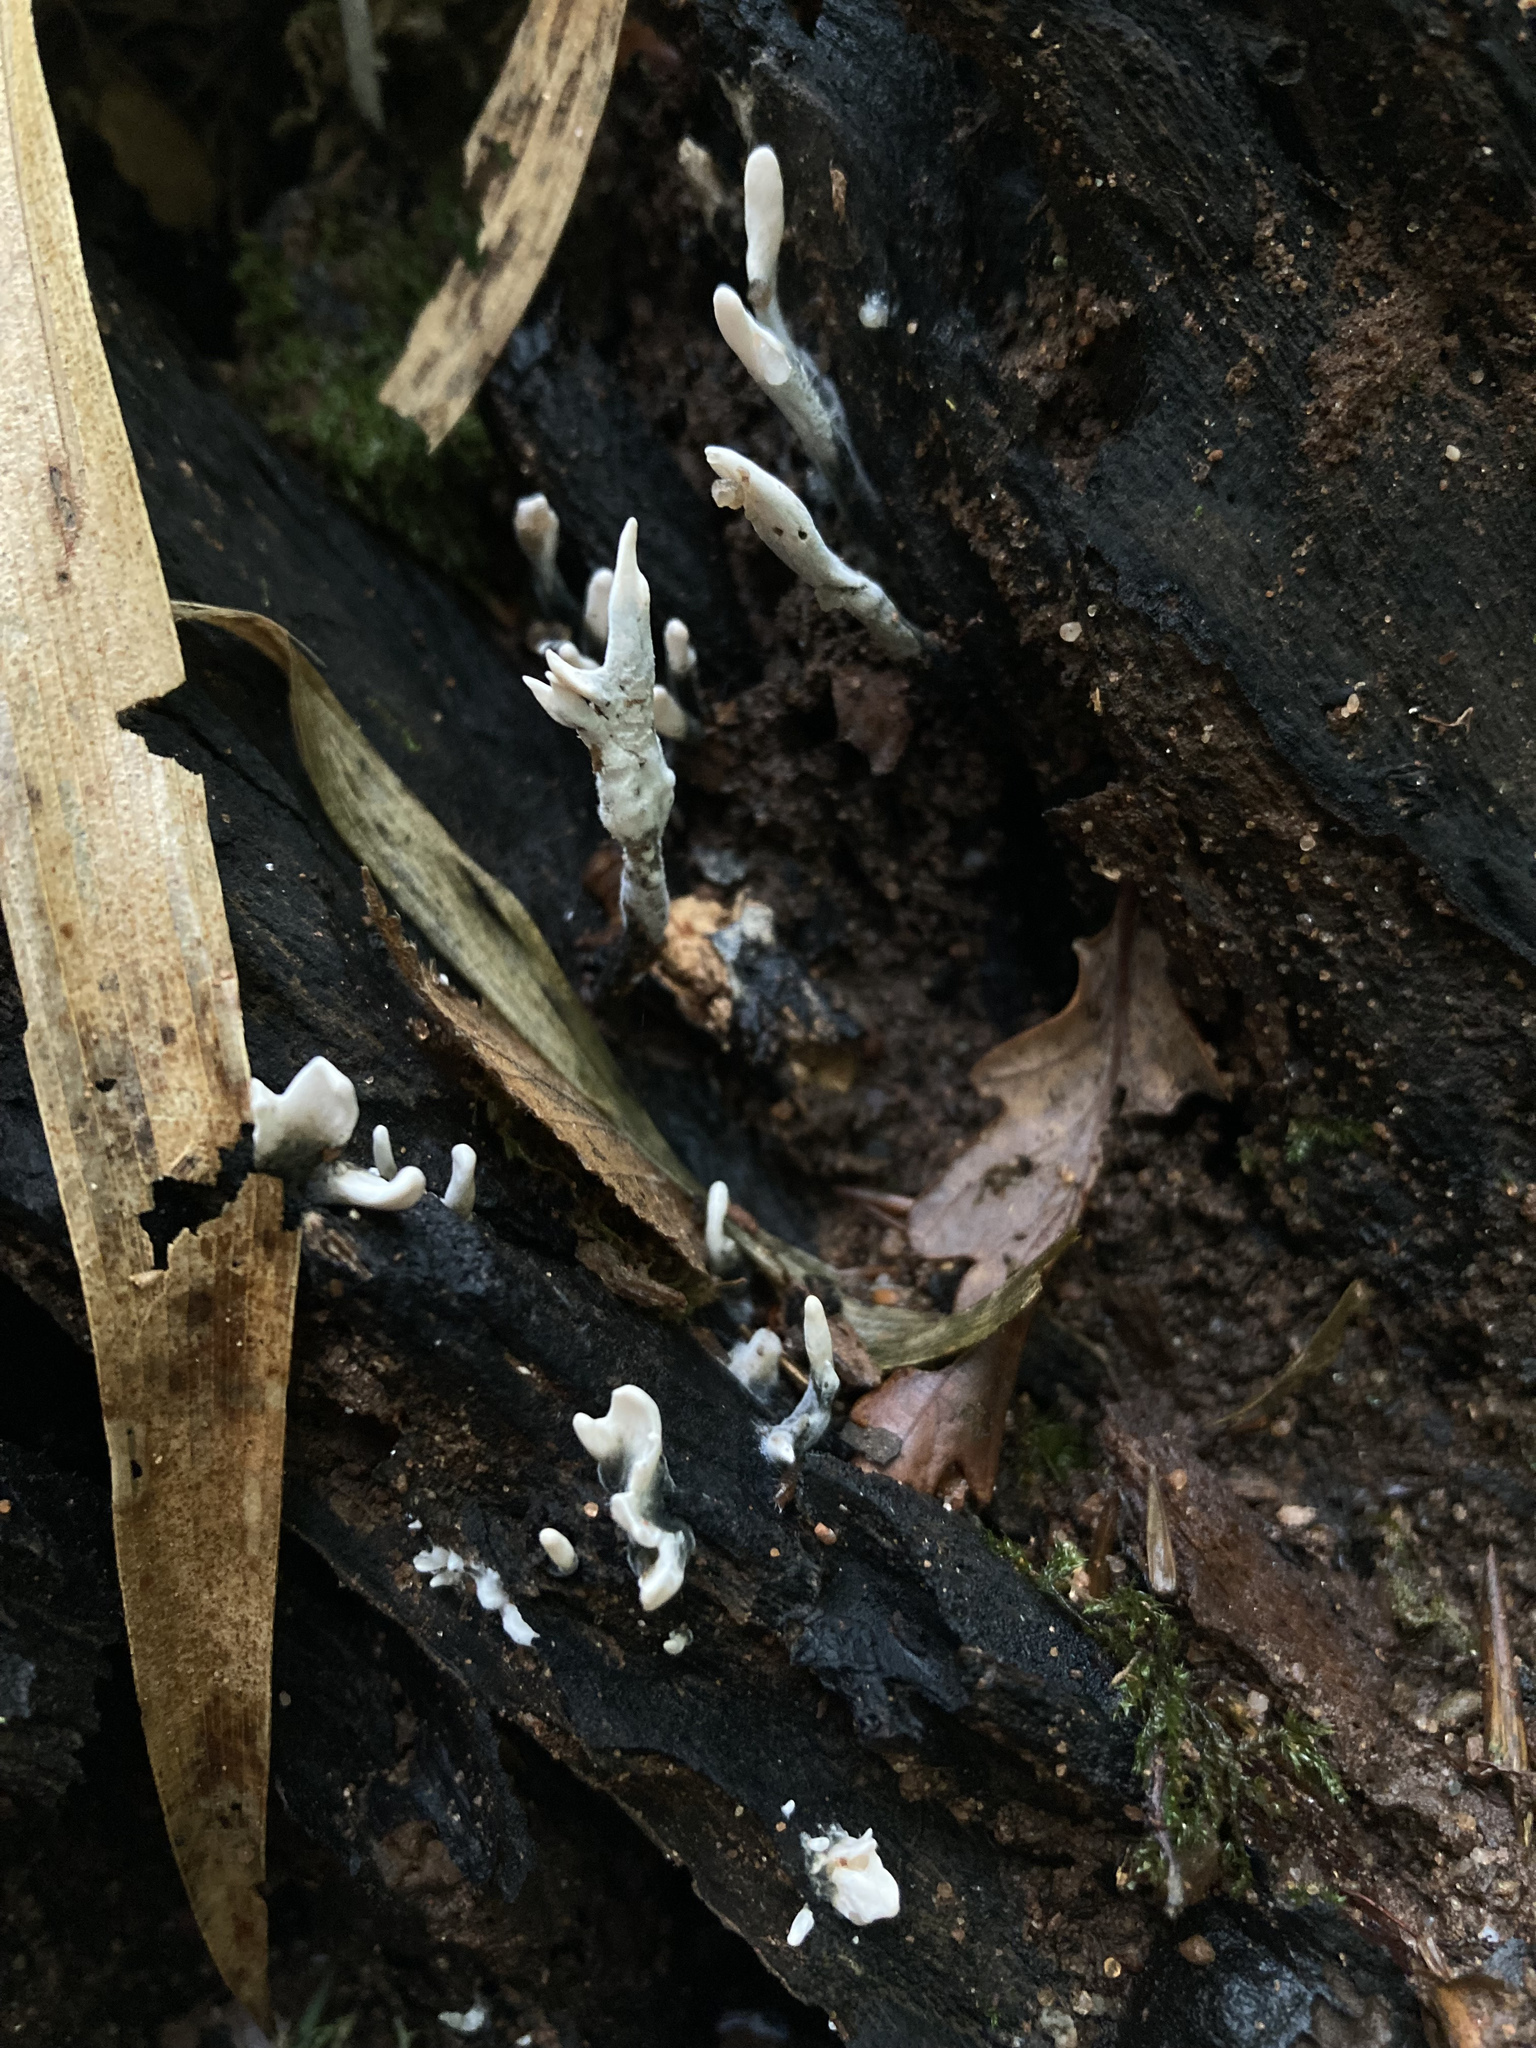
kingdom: Fungi
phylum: Ascomycota
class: Sordariomycetes
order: Xylariales
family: Xylariaceae
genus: Xylaria
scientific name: Xylaria hypoxylon
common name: Candle-snuff fungus
